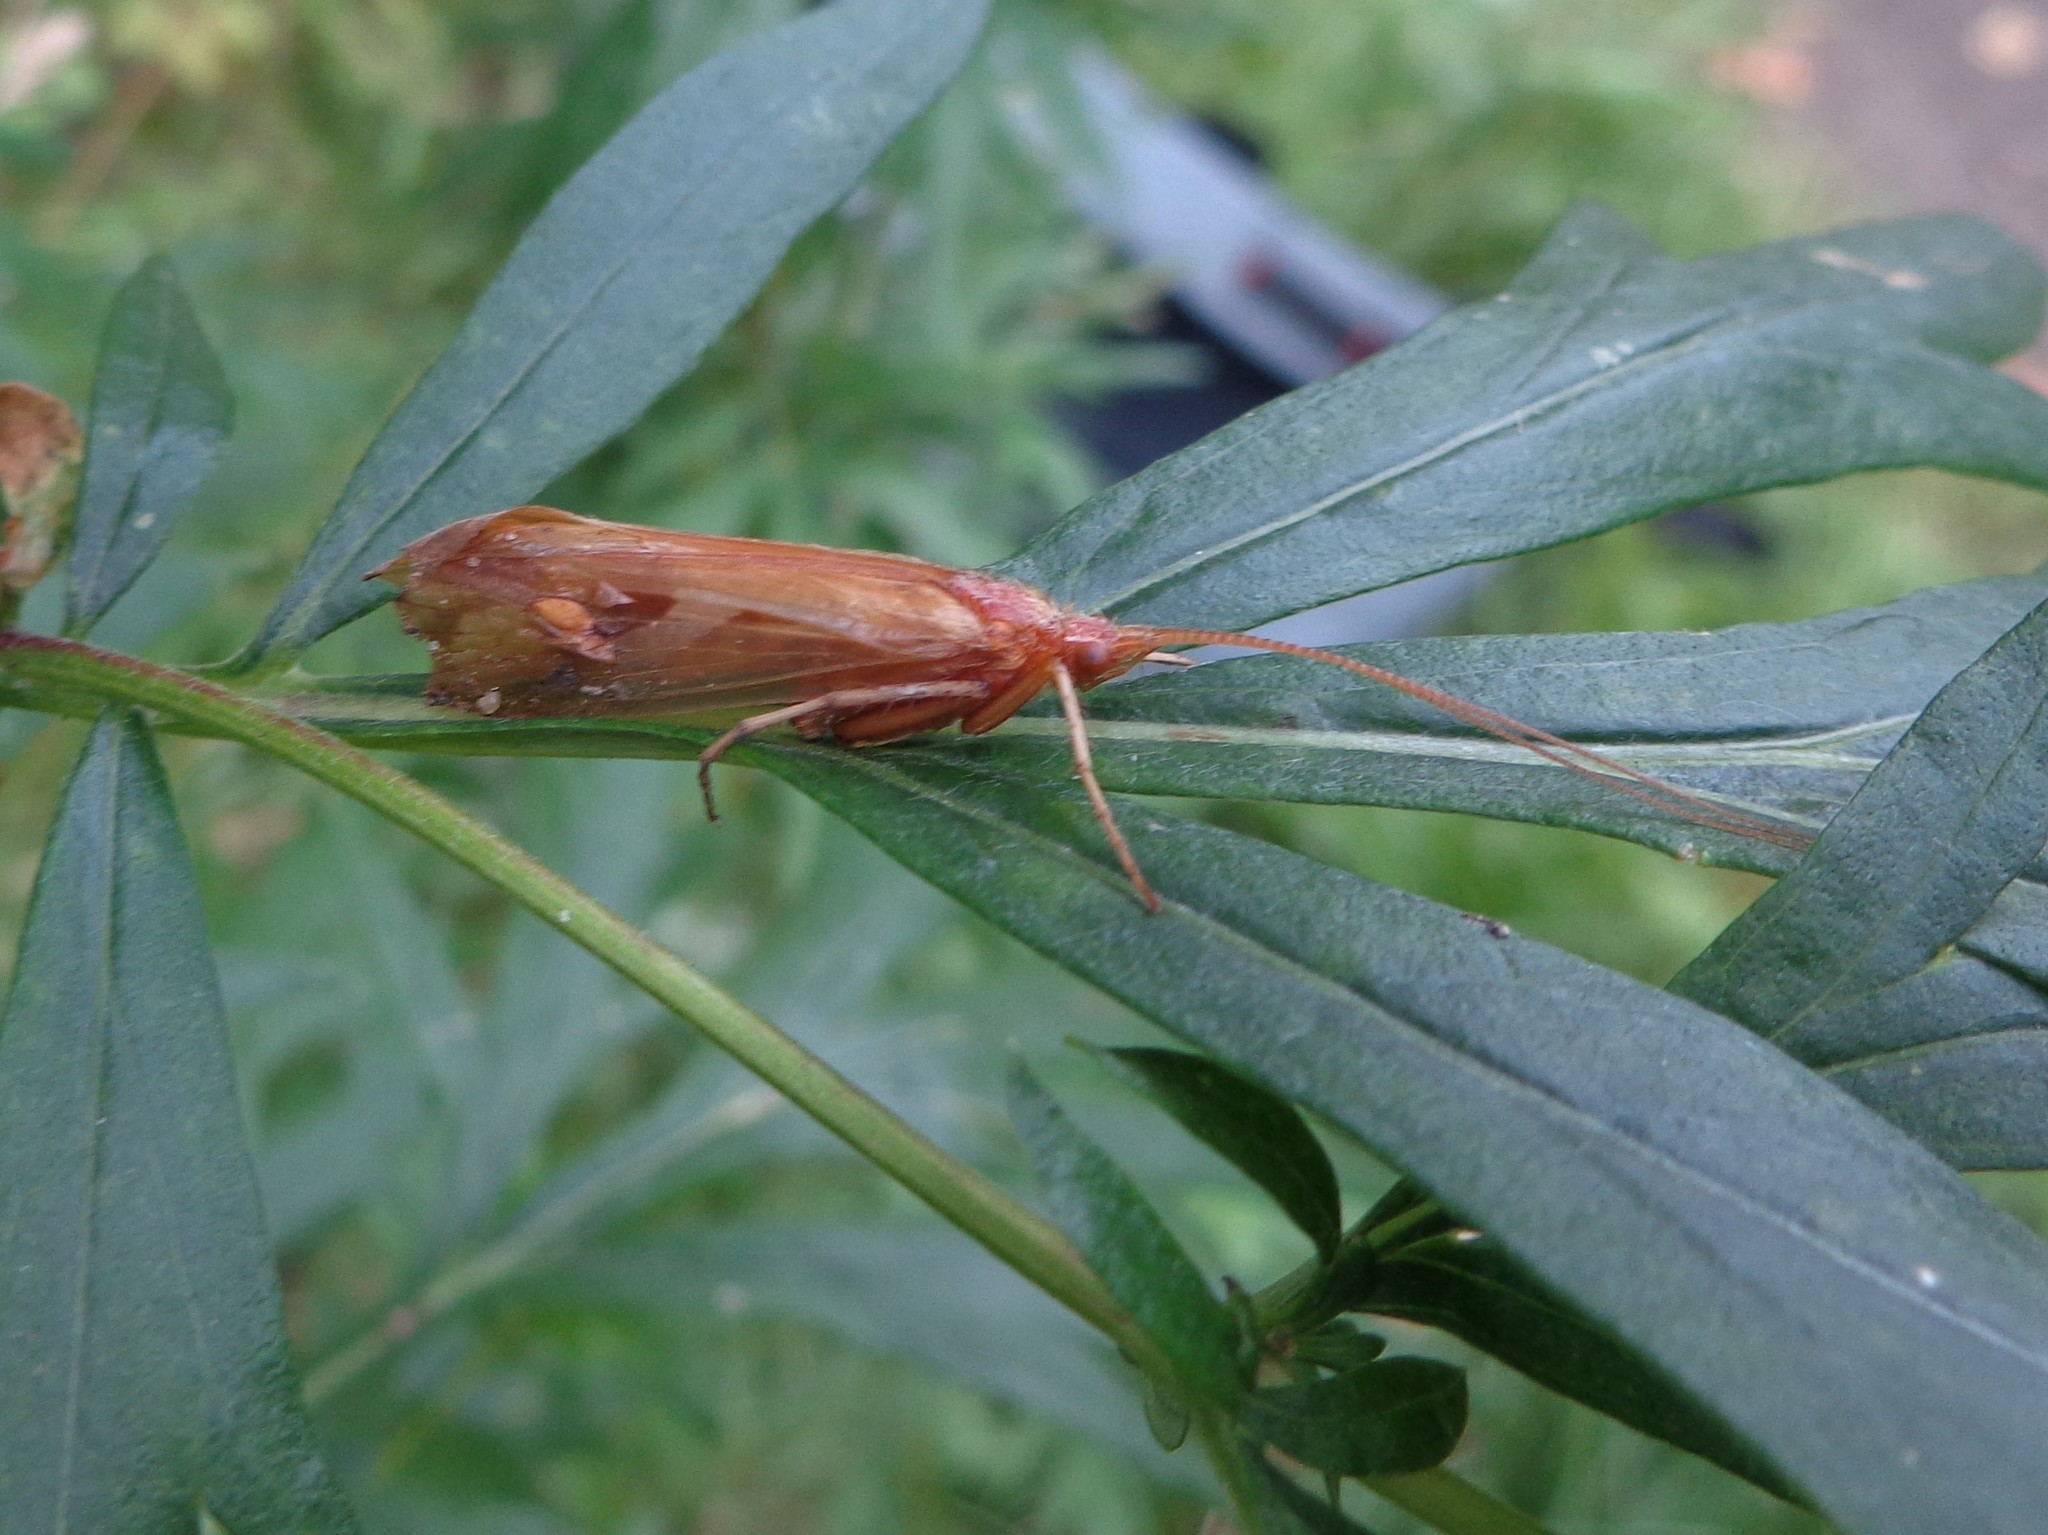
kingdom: Animalia
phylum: Arthropoda
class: Insecta
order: Trichoptera
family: Limnephilidae
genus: Limnephilus
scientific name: Limnephilus rhombicus
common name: Diamond northern caddisfly
